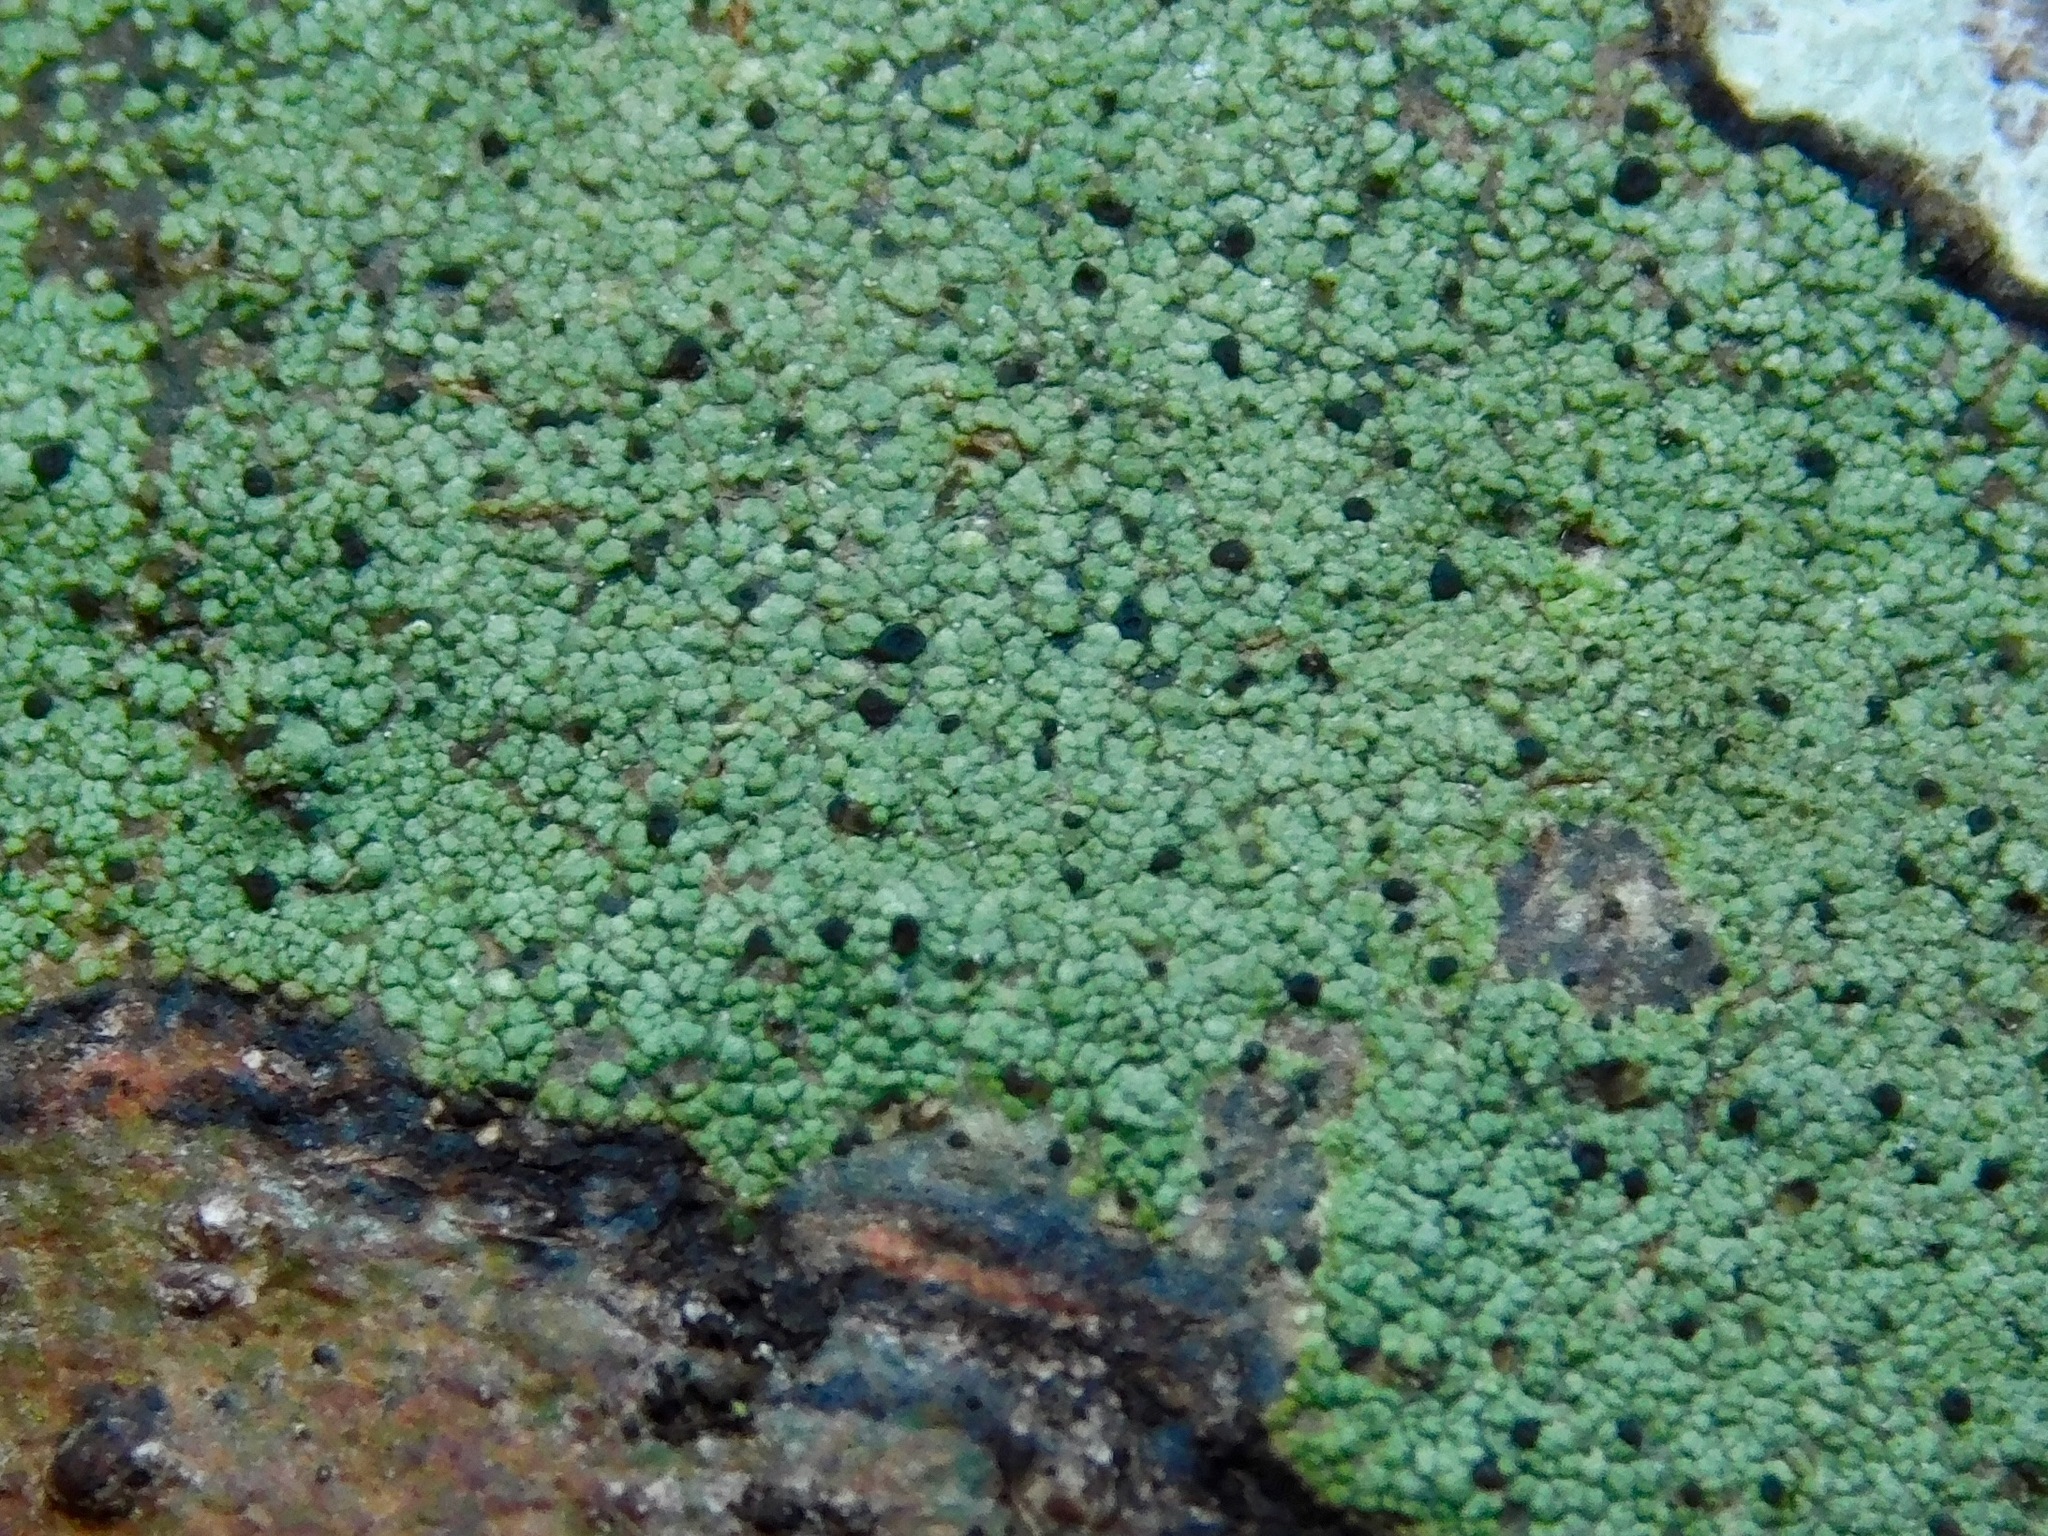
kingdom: Fungi
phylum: Ascomycota
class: Lecanoromycetes
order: Schaereriales
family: Schaereriaceae
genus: Ropalospora
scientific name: Ropalospora chlorantha
